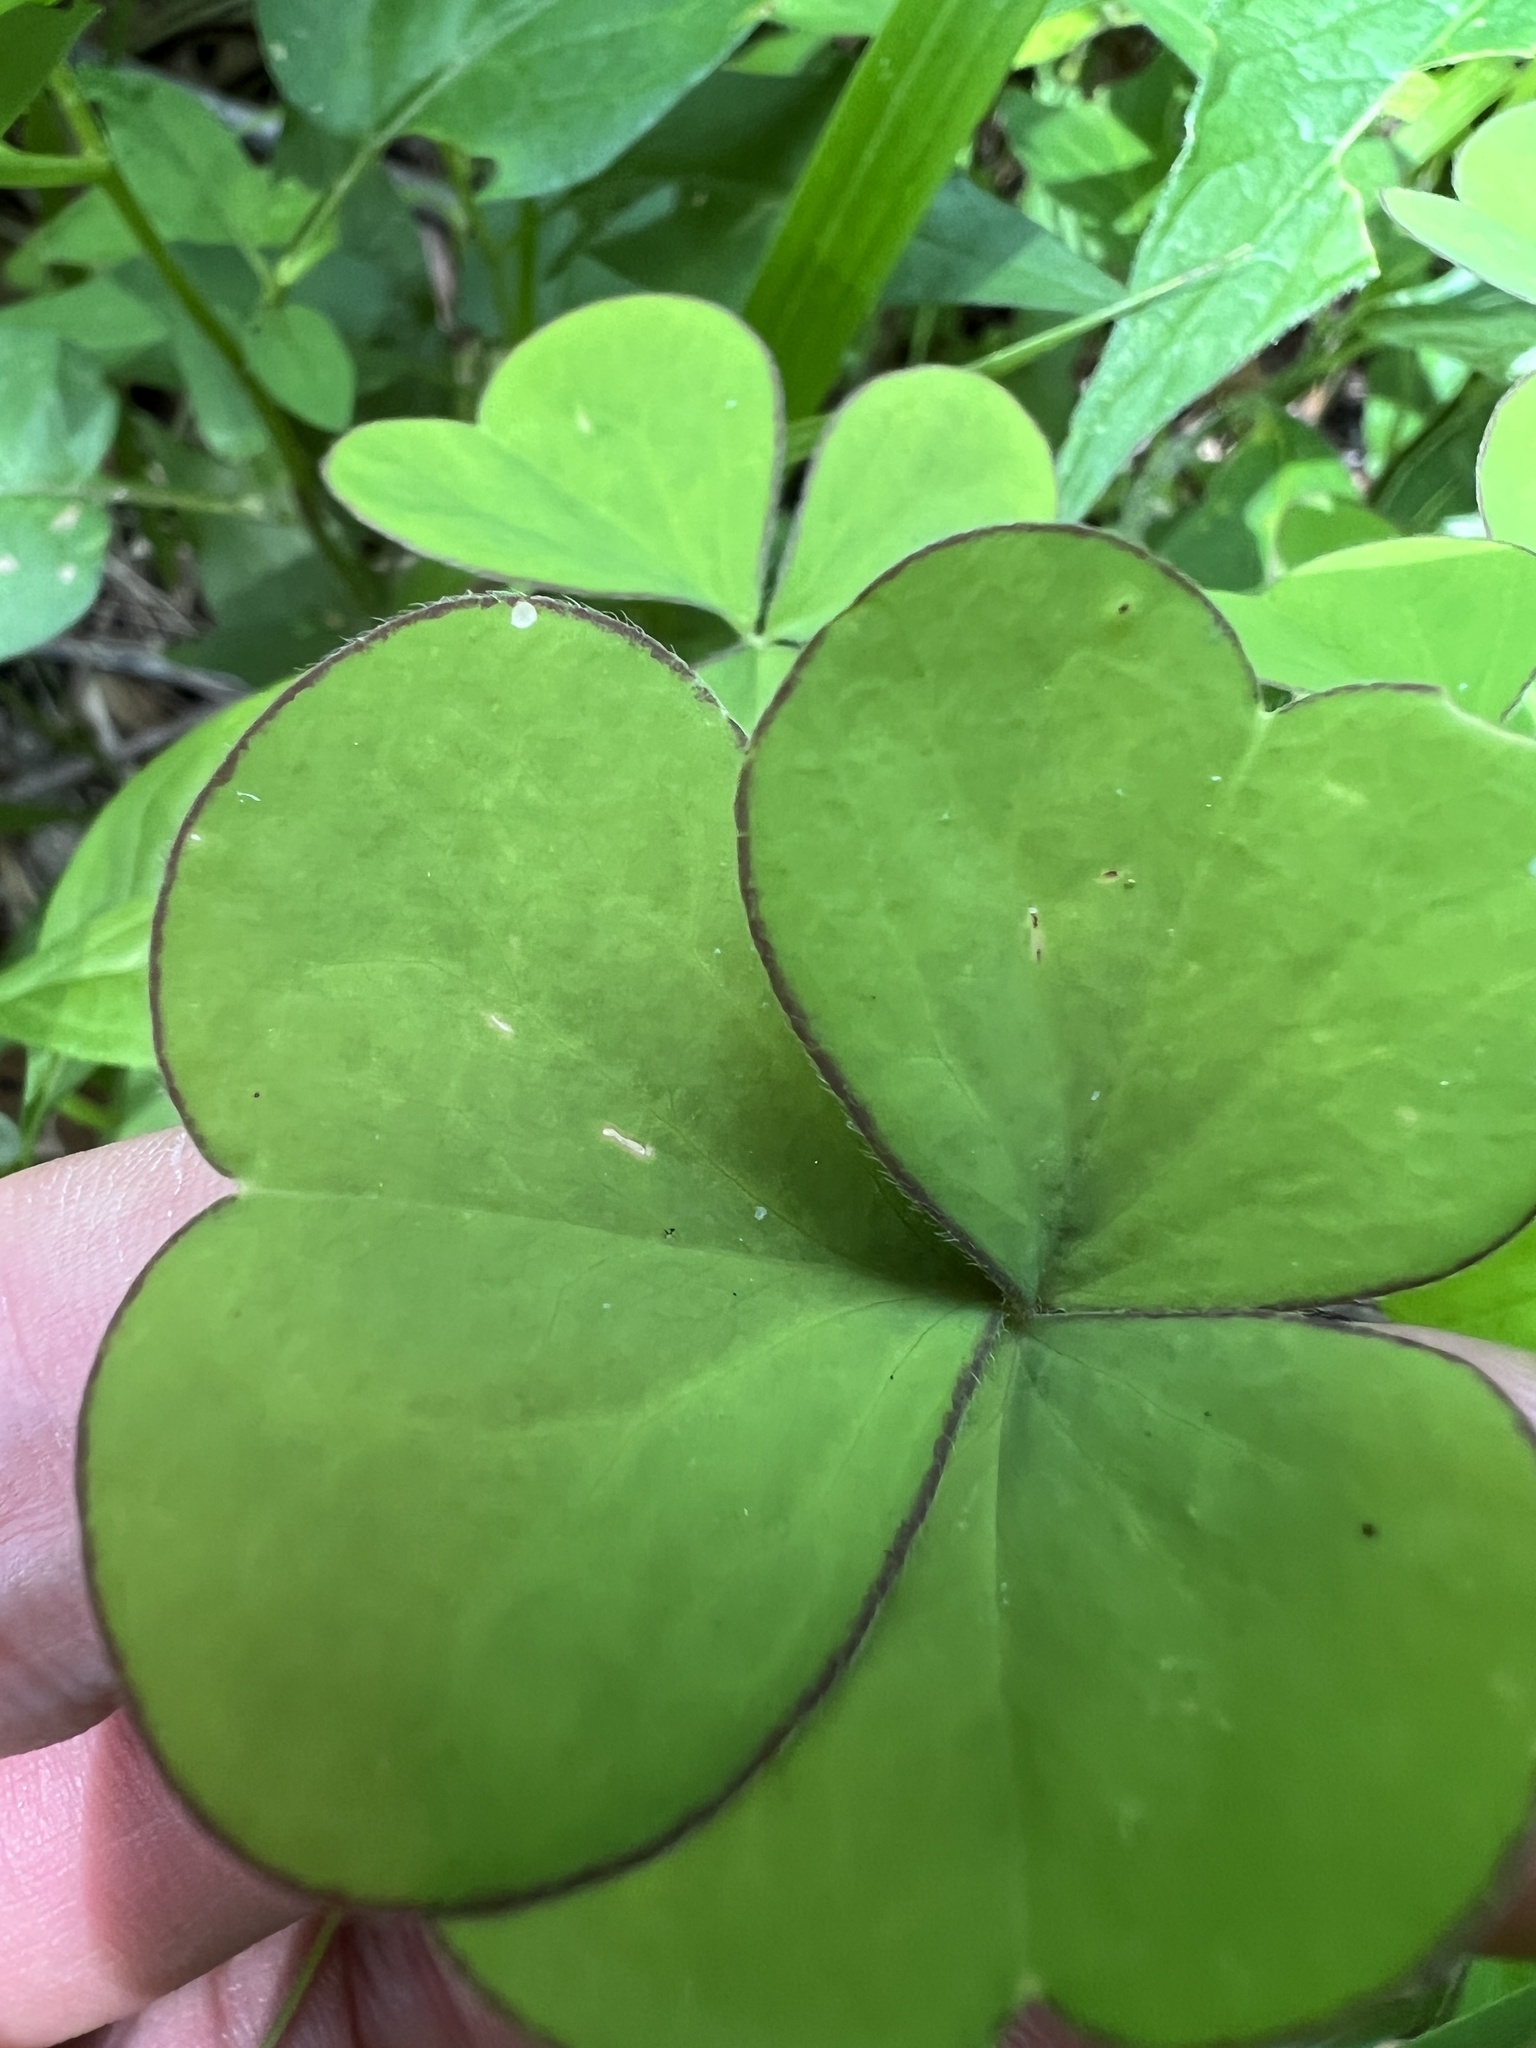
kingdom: Plantae
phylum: Tracheophyta
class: Magnoliopsida
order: Oxalidales
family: Oxalidaceae
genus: Oxalis
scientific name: Oxalis grandis
